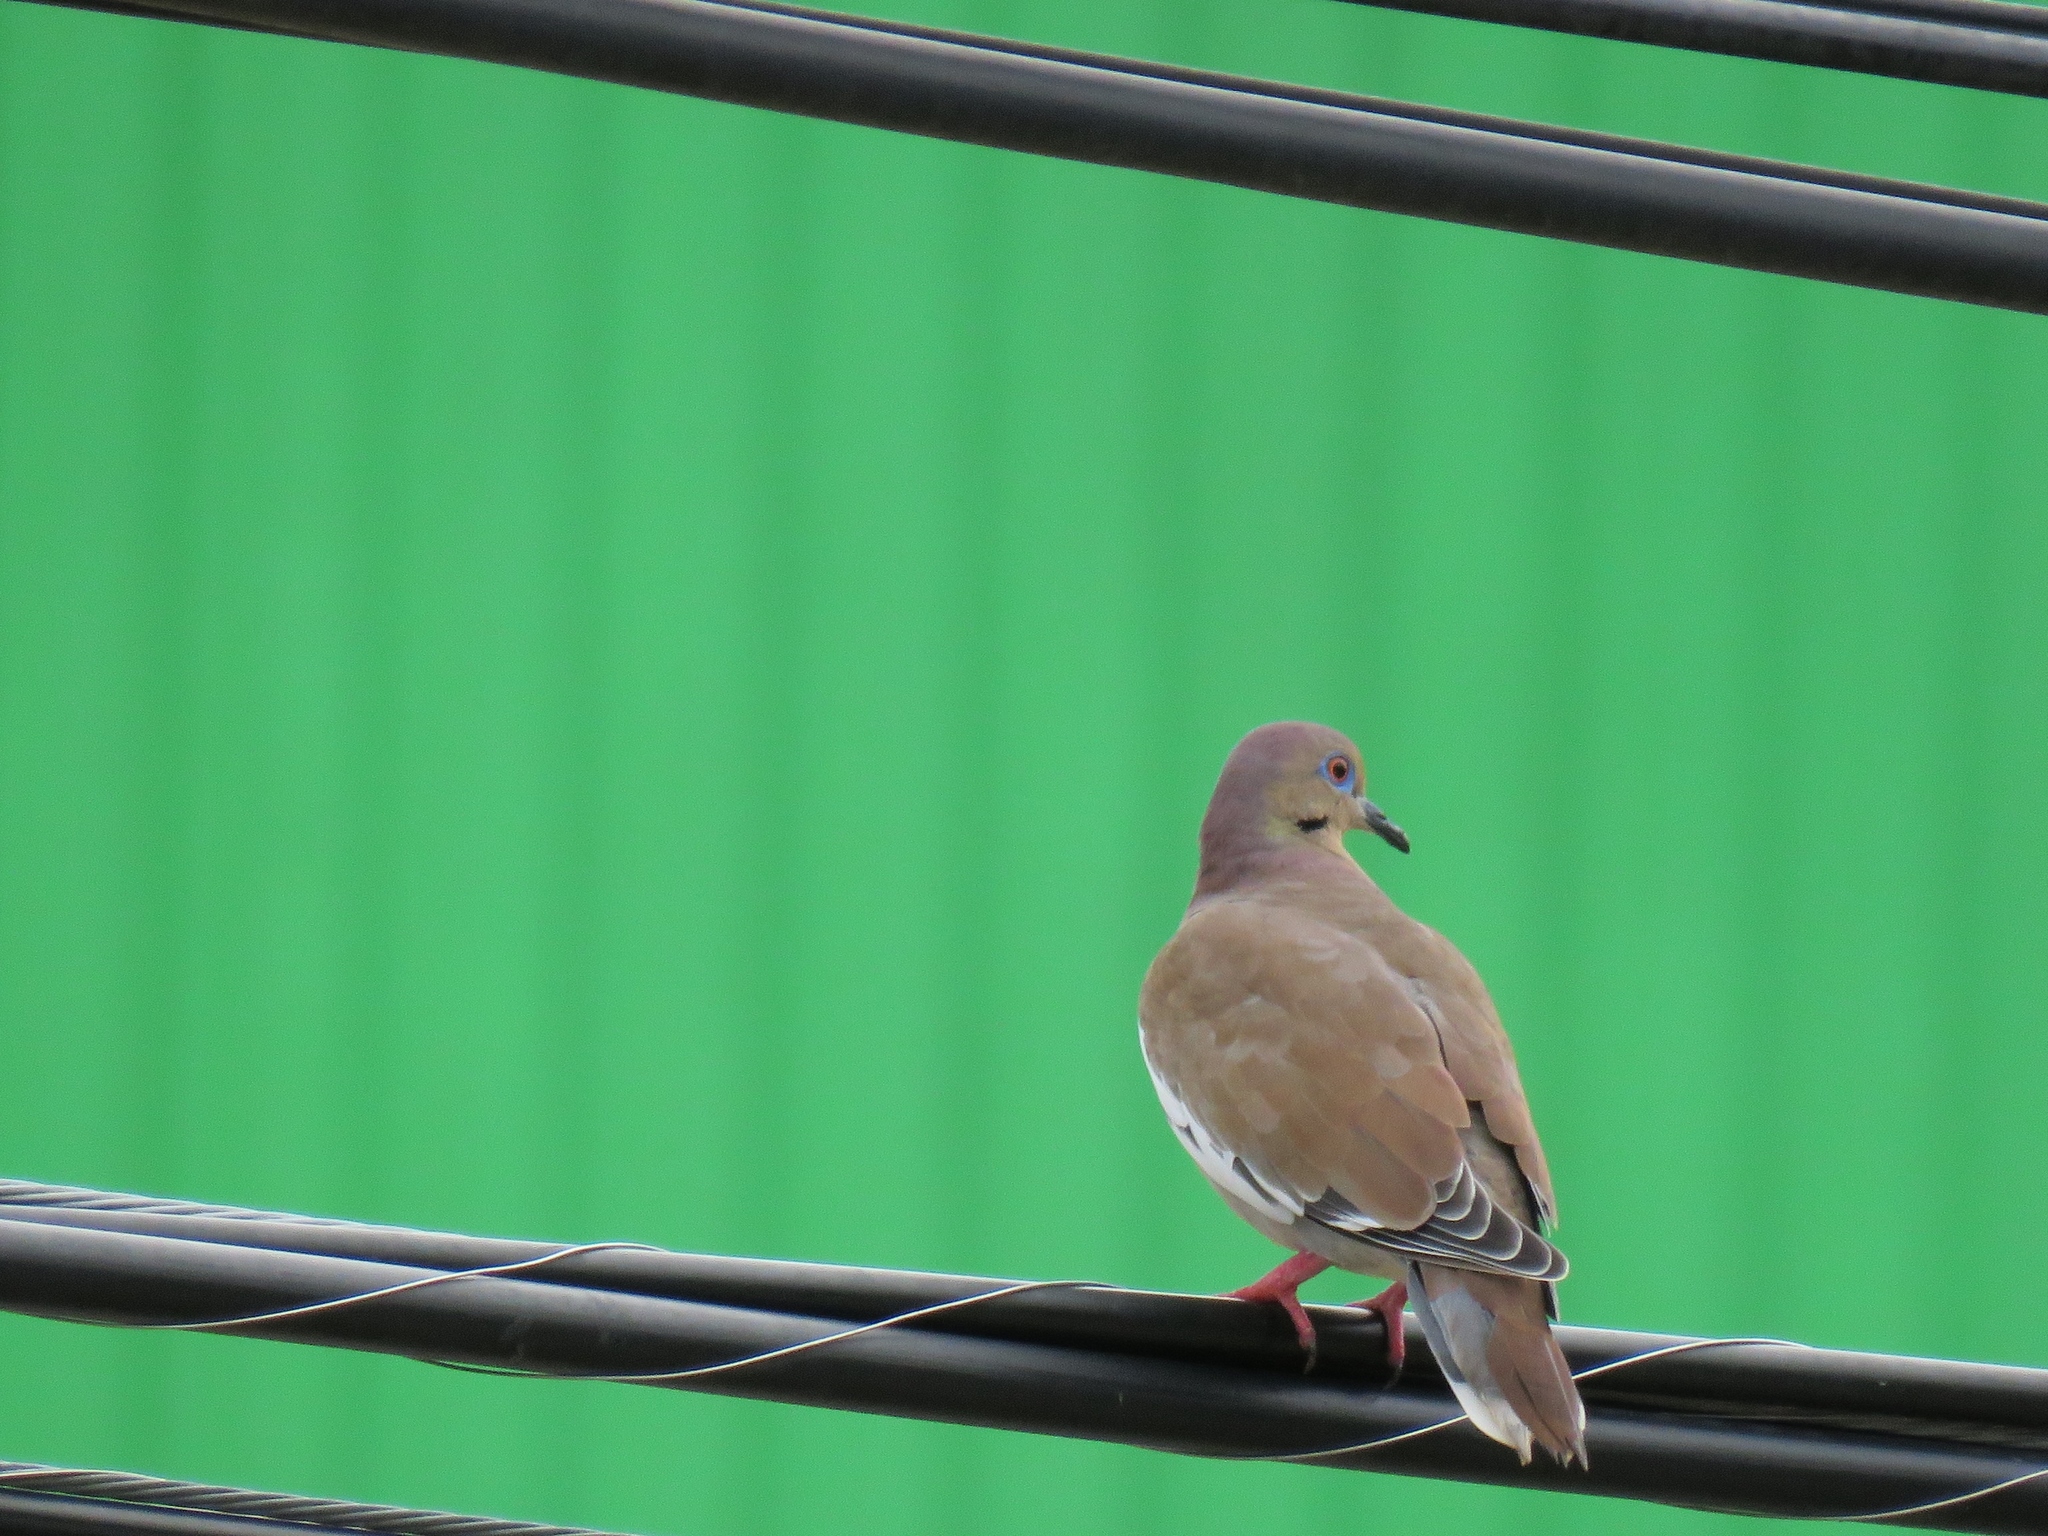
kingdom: Animalia
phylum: Chordata
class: Aves
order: Columbiformes
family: Columbidae
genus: Zenaida
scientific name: Zenaida asiatica
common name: White-winged dove
